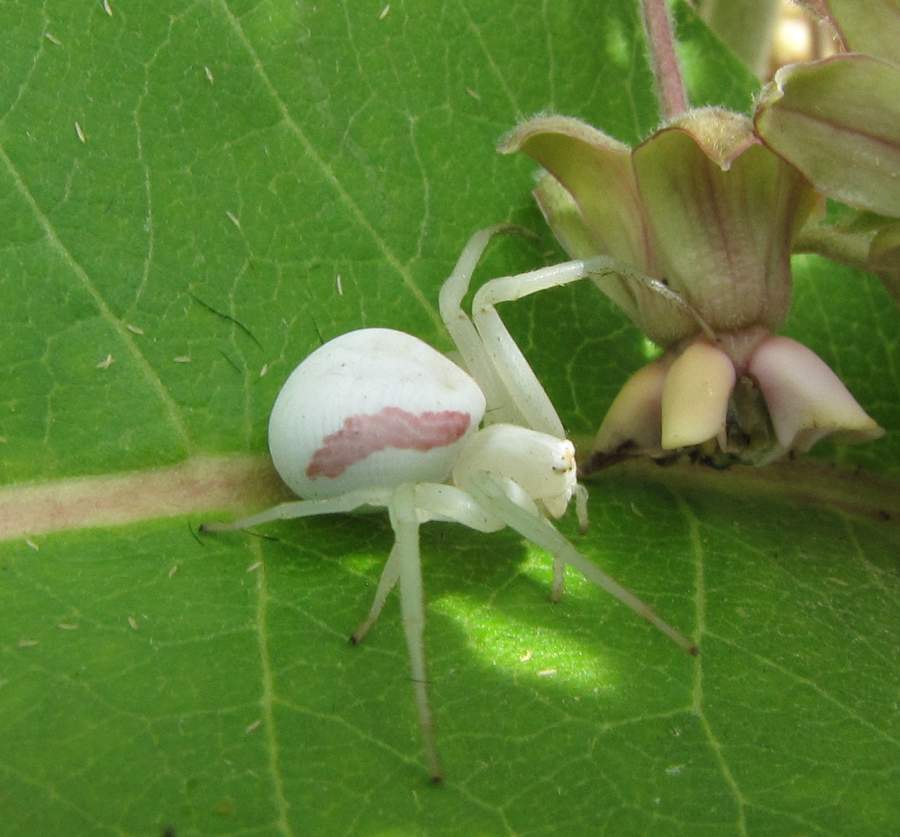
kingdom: Animalia
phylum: Arthropoda
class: Arachnida
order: Araneae
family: Thomisidae
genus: Misumena
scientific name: Misumena vatia
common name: Goldenrod crab spider
